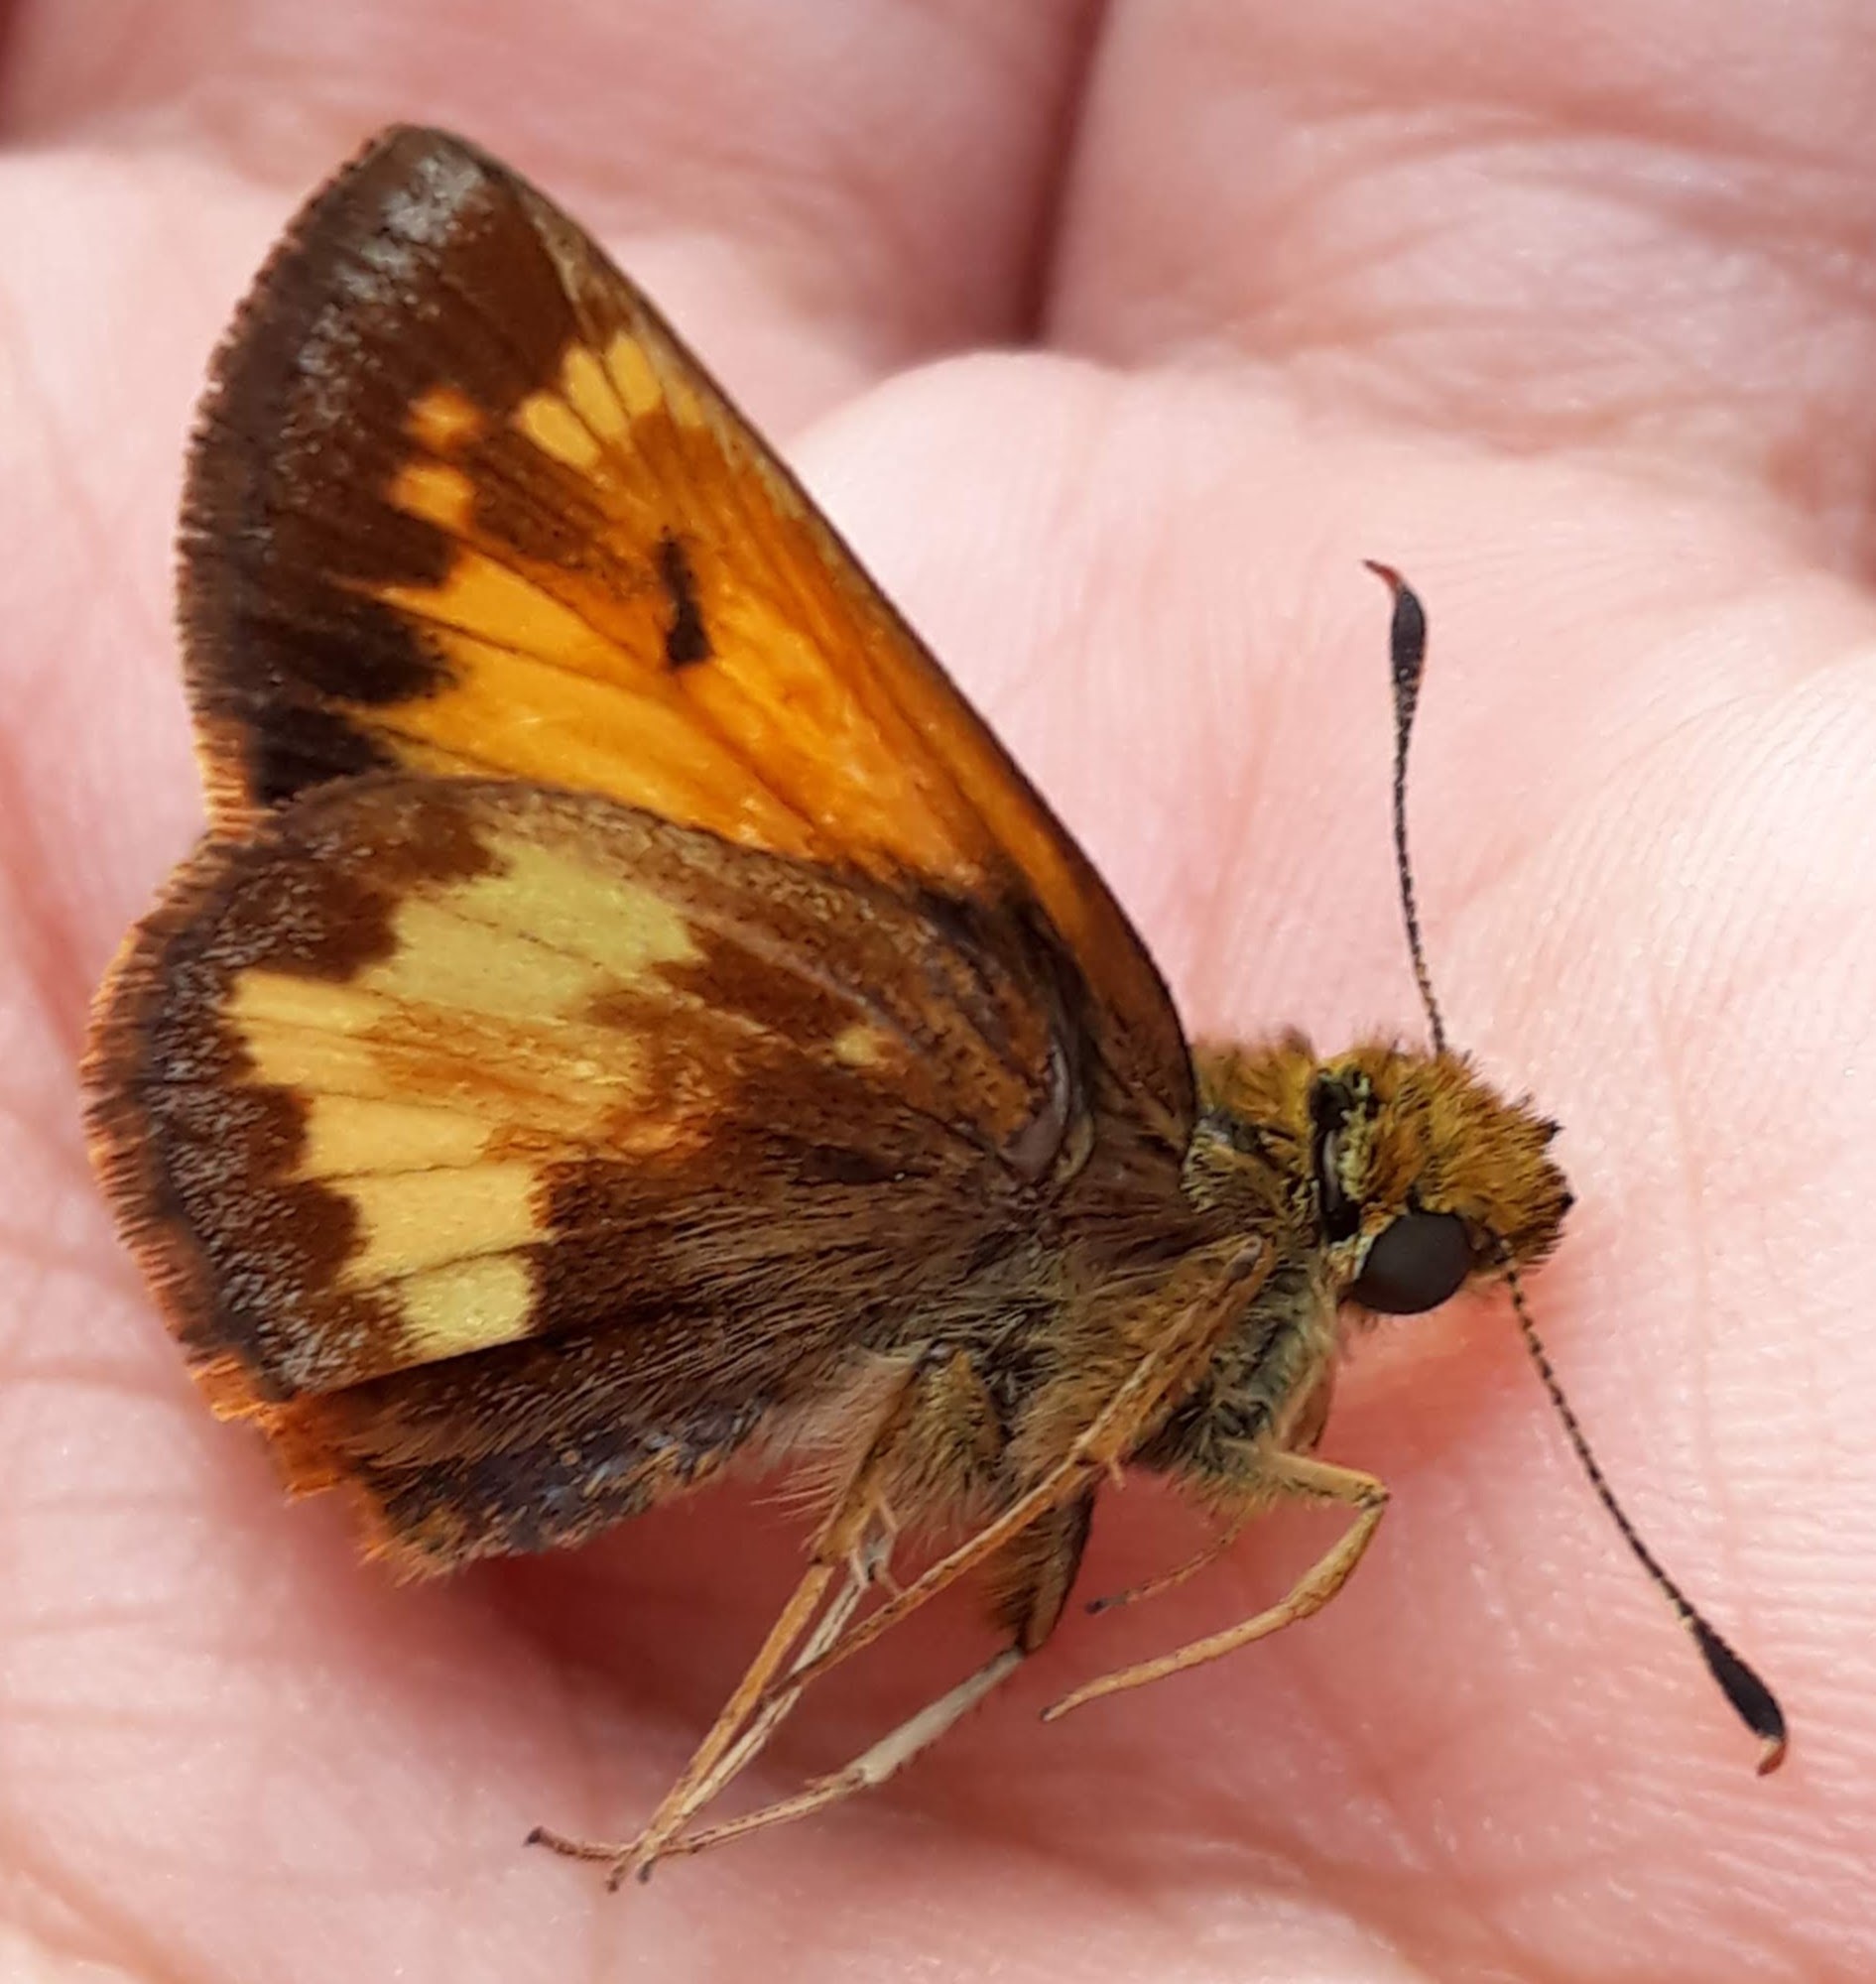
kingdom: Animalia
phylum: Arthropoda
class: Insecta
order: Lepidoptera
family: Hesperiidae
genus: Lon
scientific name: Lon hobomok
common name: Hobomok skipper
